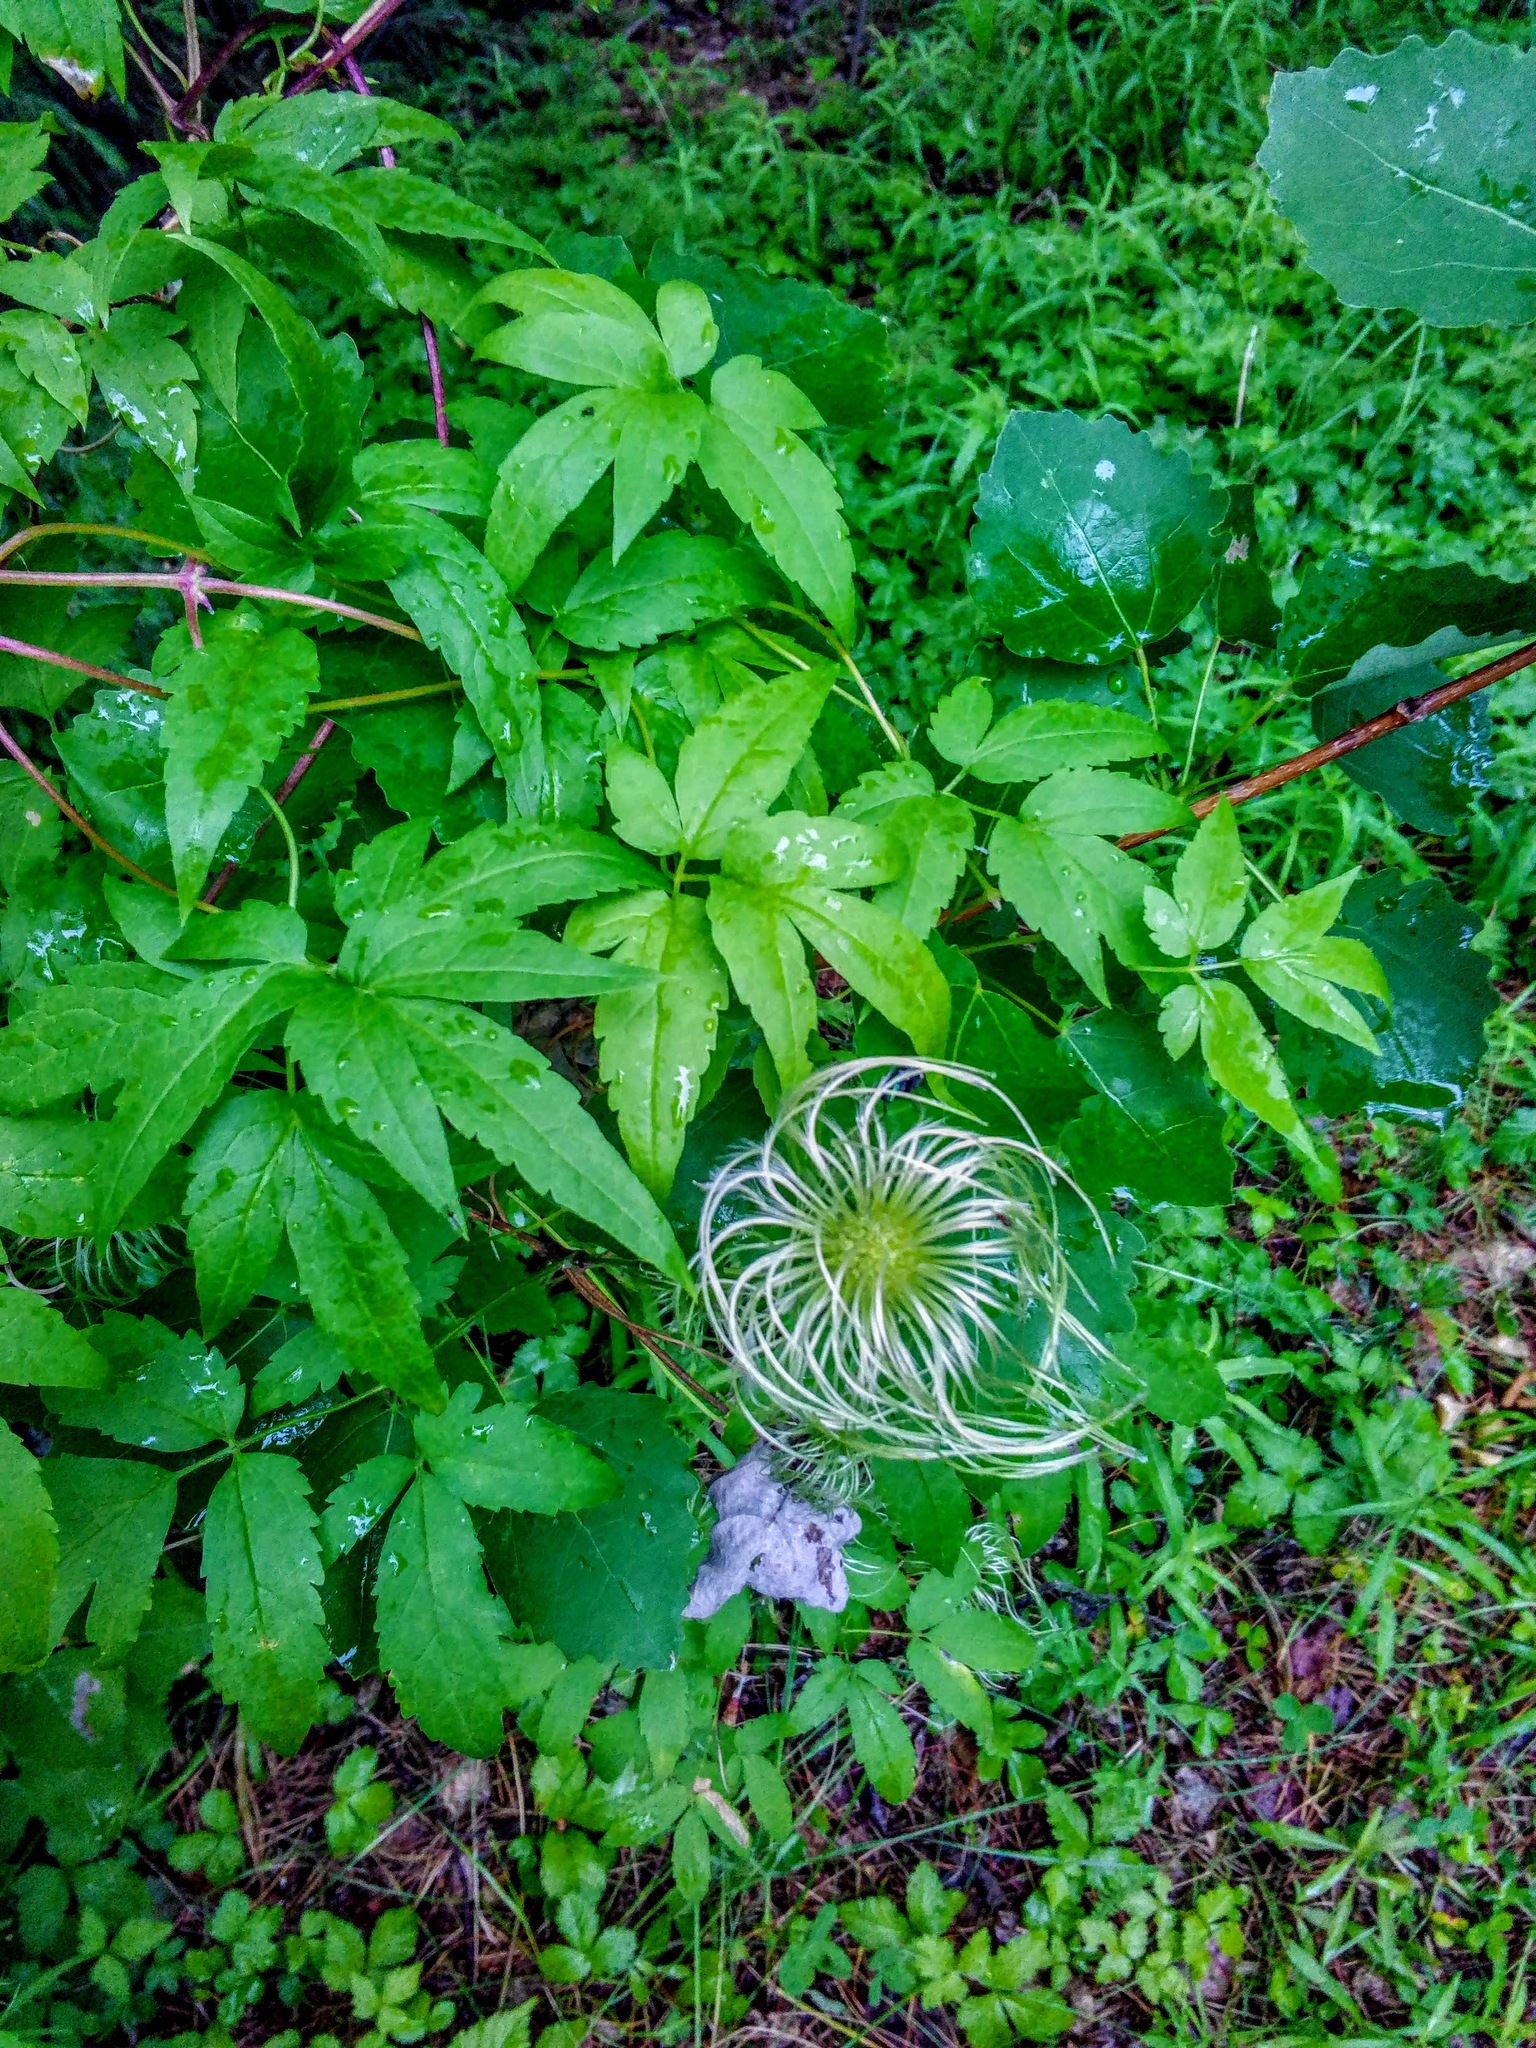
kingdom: Plantae
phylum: Tracheophyta
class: Magnoliopsida
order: Ranunculales
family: Ranunculaceae
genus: Clematis
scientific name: Clematis sibirica
